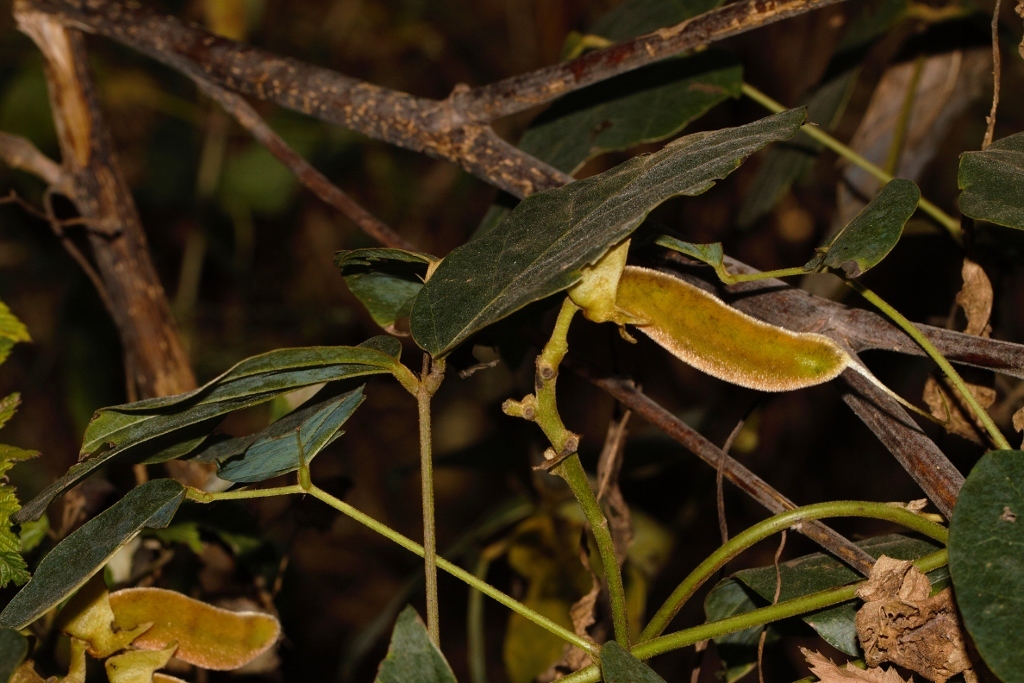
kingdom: Plantae
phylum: Tracheophyta
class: Magnoliopsida
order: Fabales
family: Fabaceae
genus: Mucuna
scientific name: Mucuna coriacea
